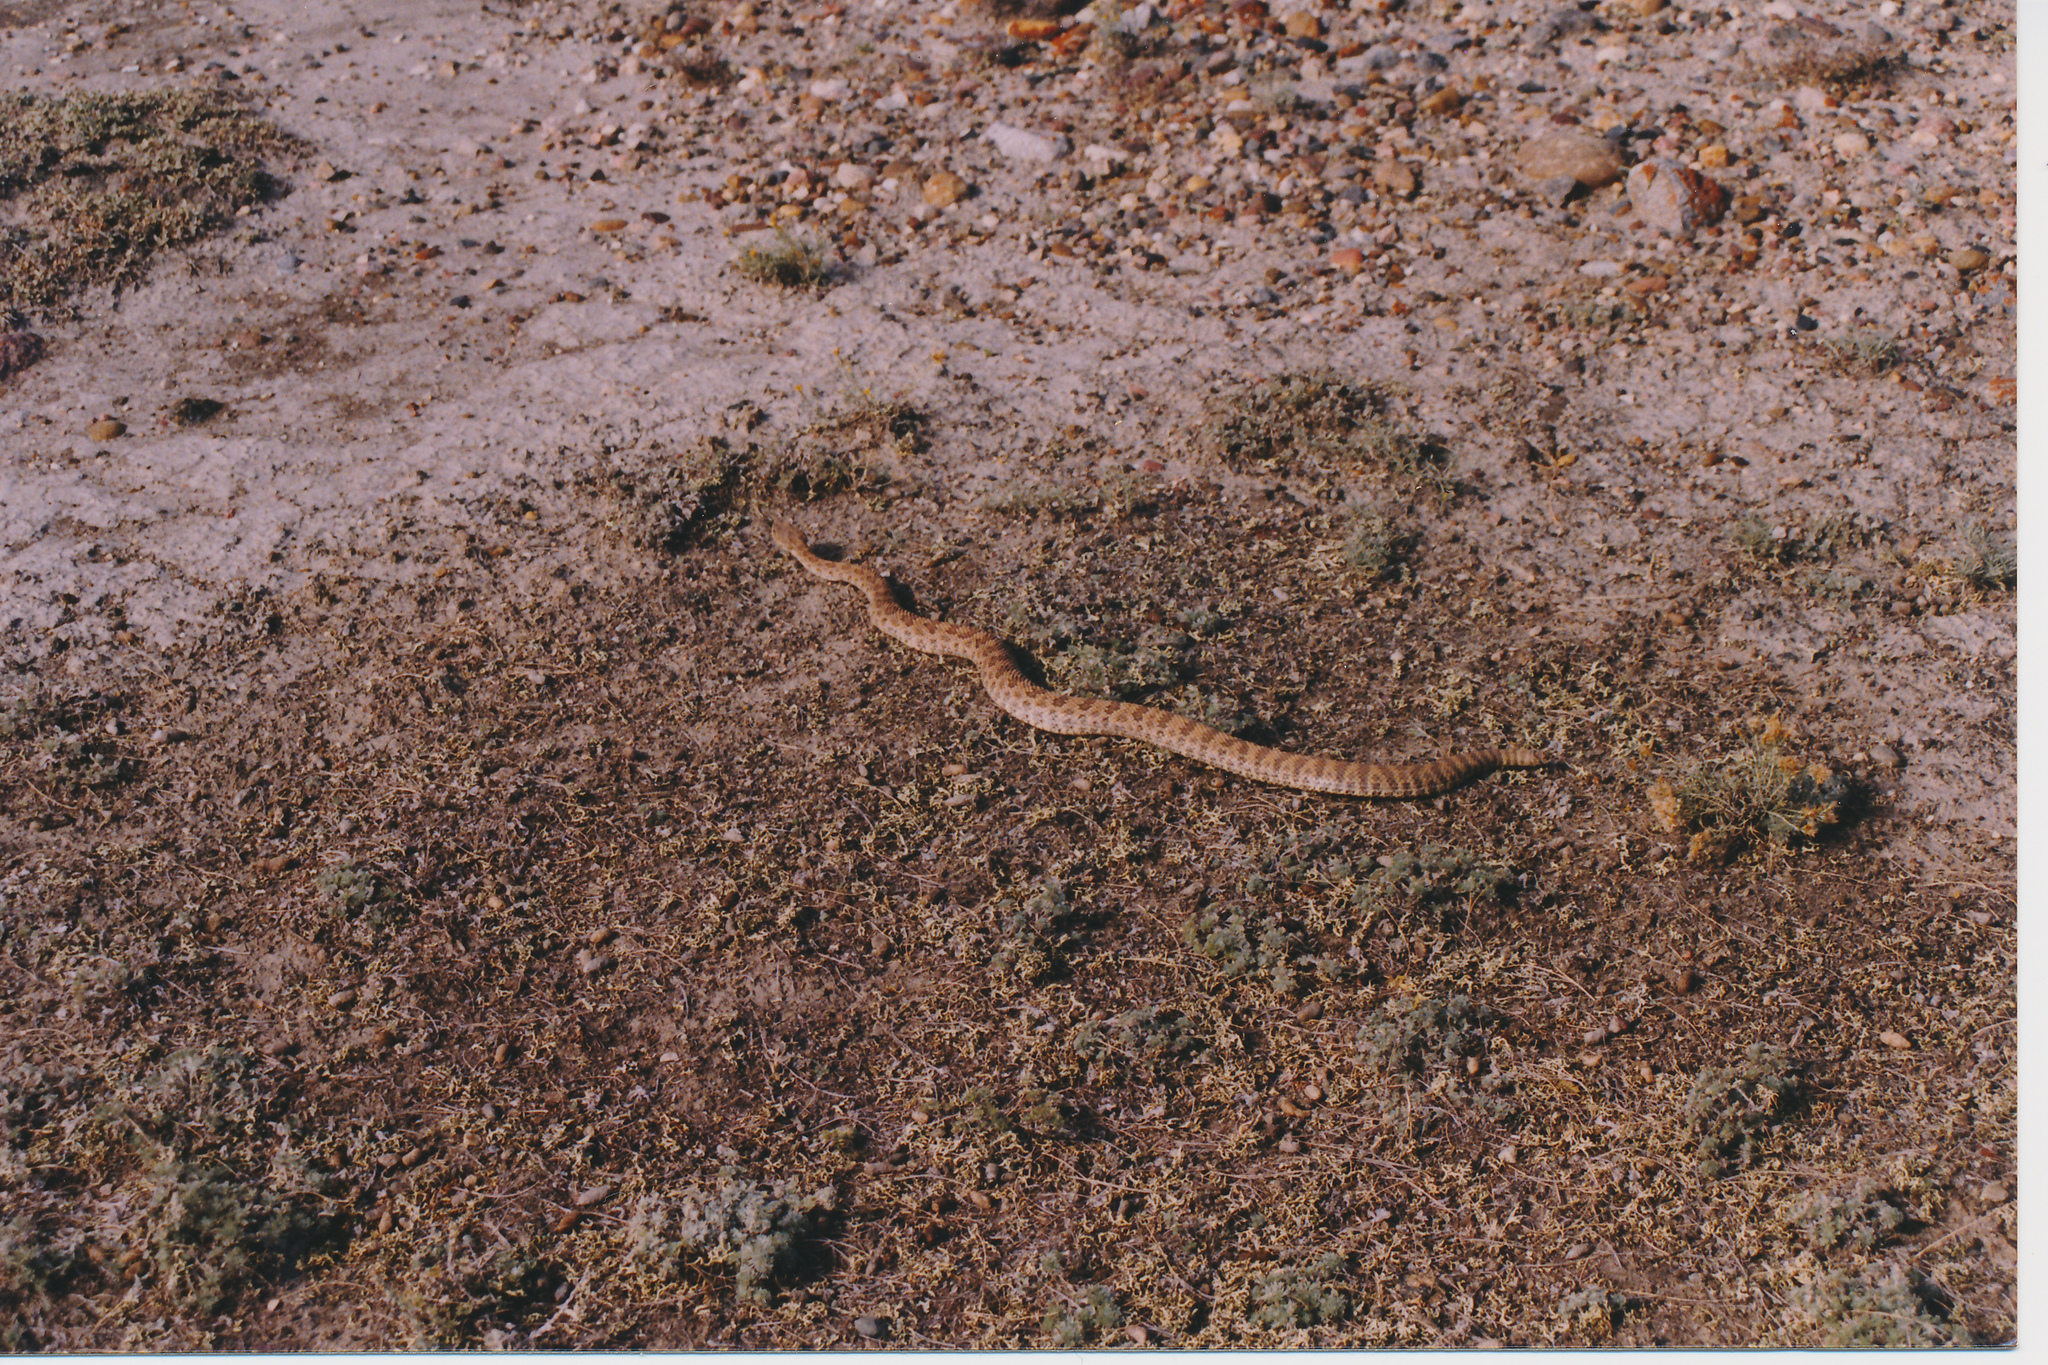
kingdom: Animalia
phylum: Chordata
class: Squamata
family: Viperidae
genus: Crotalus
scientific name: Crotalus viridis
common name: Prairie rattlesnake
